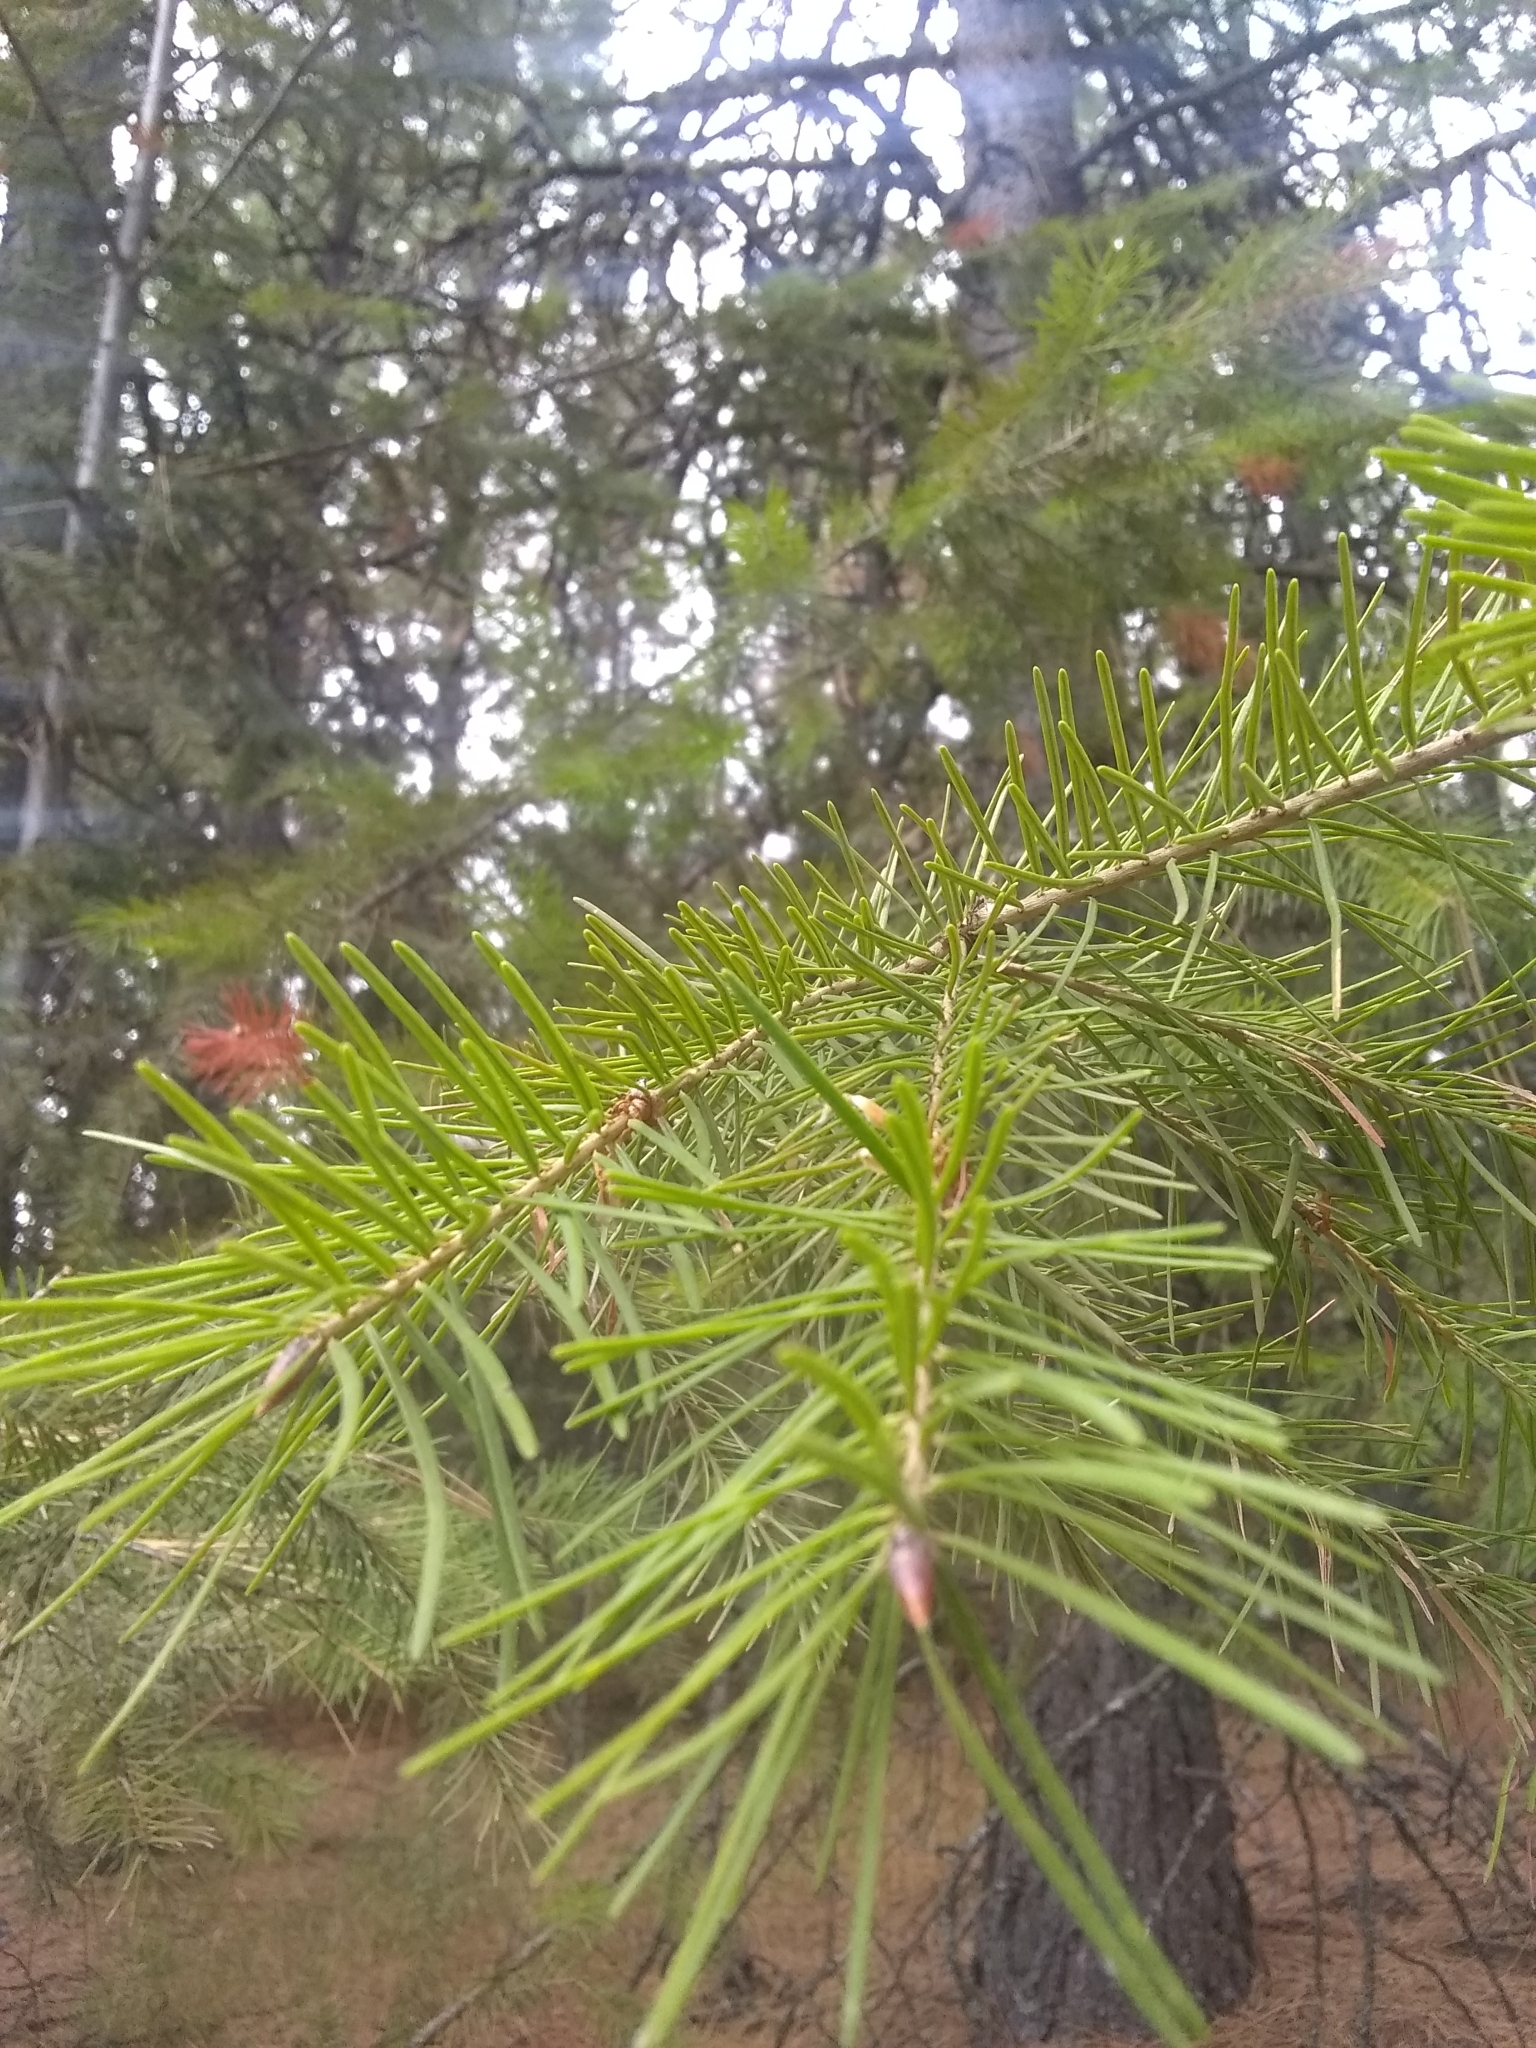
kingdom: Plantae
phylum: Tracheophyta
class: Pinopsida
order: Pinales
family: Pinaceae
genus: Pseudotsuga
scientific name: Pseudotsuga menziesii
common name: Douglas fir
